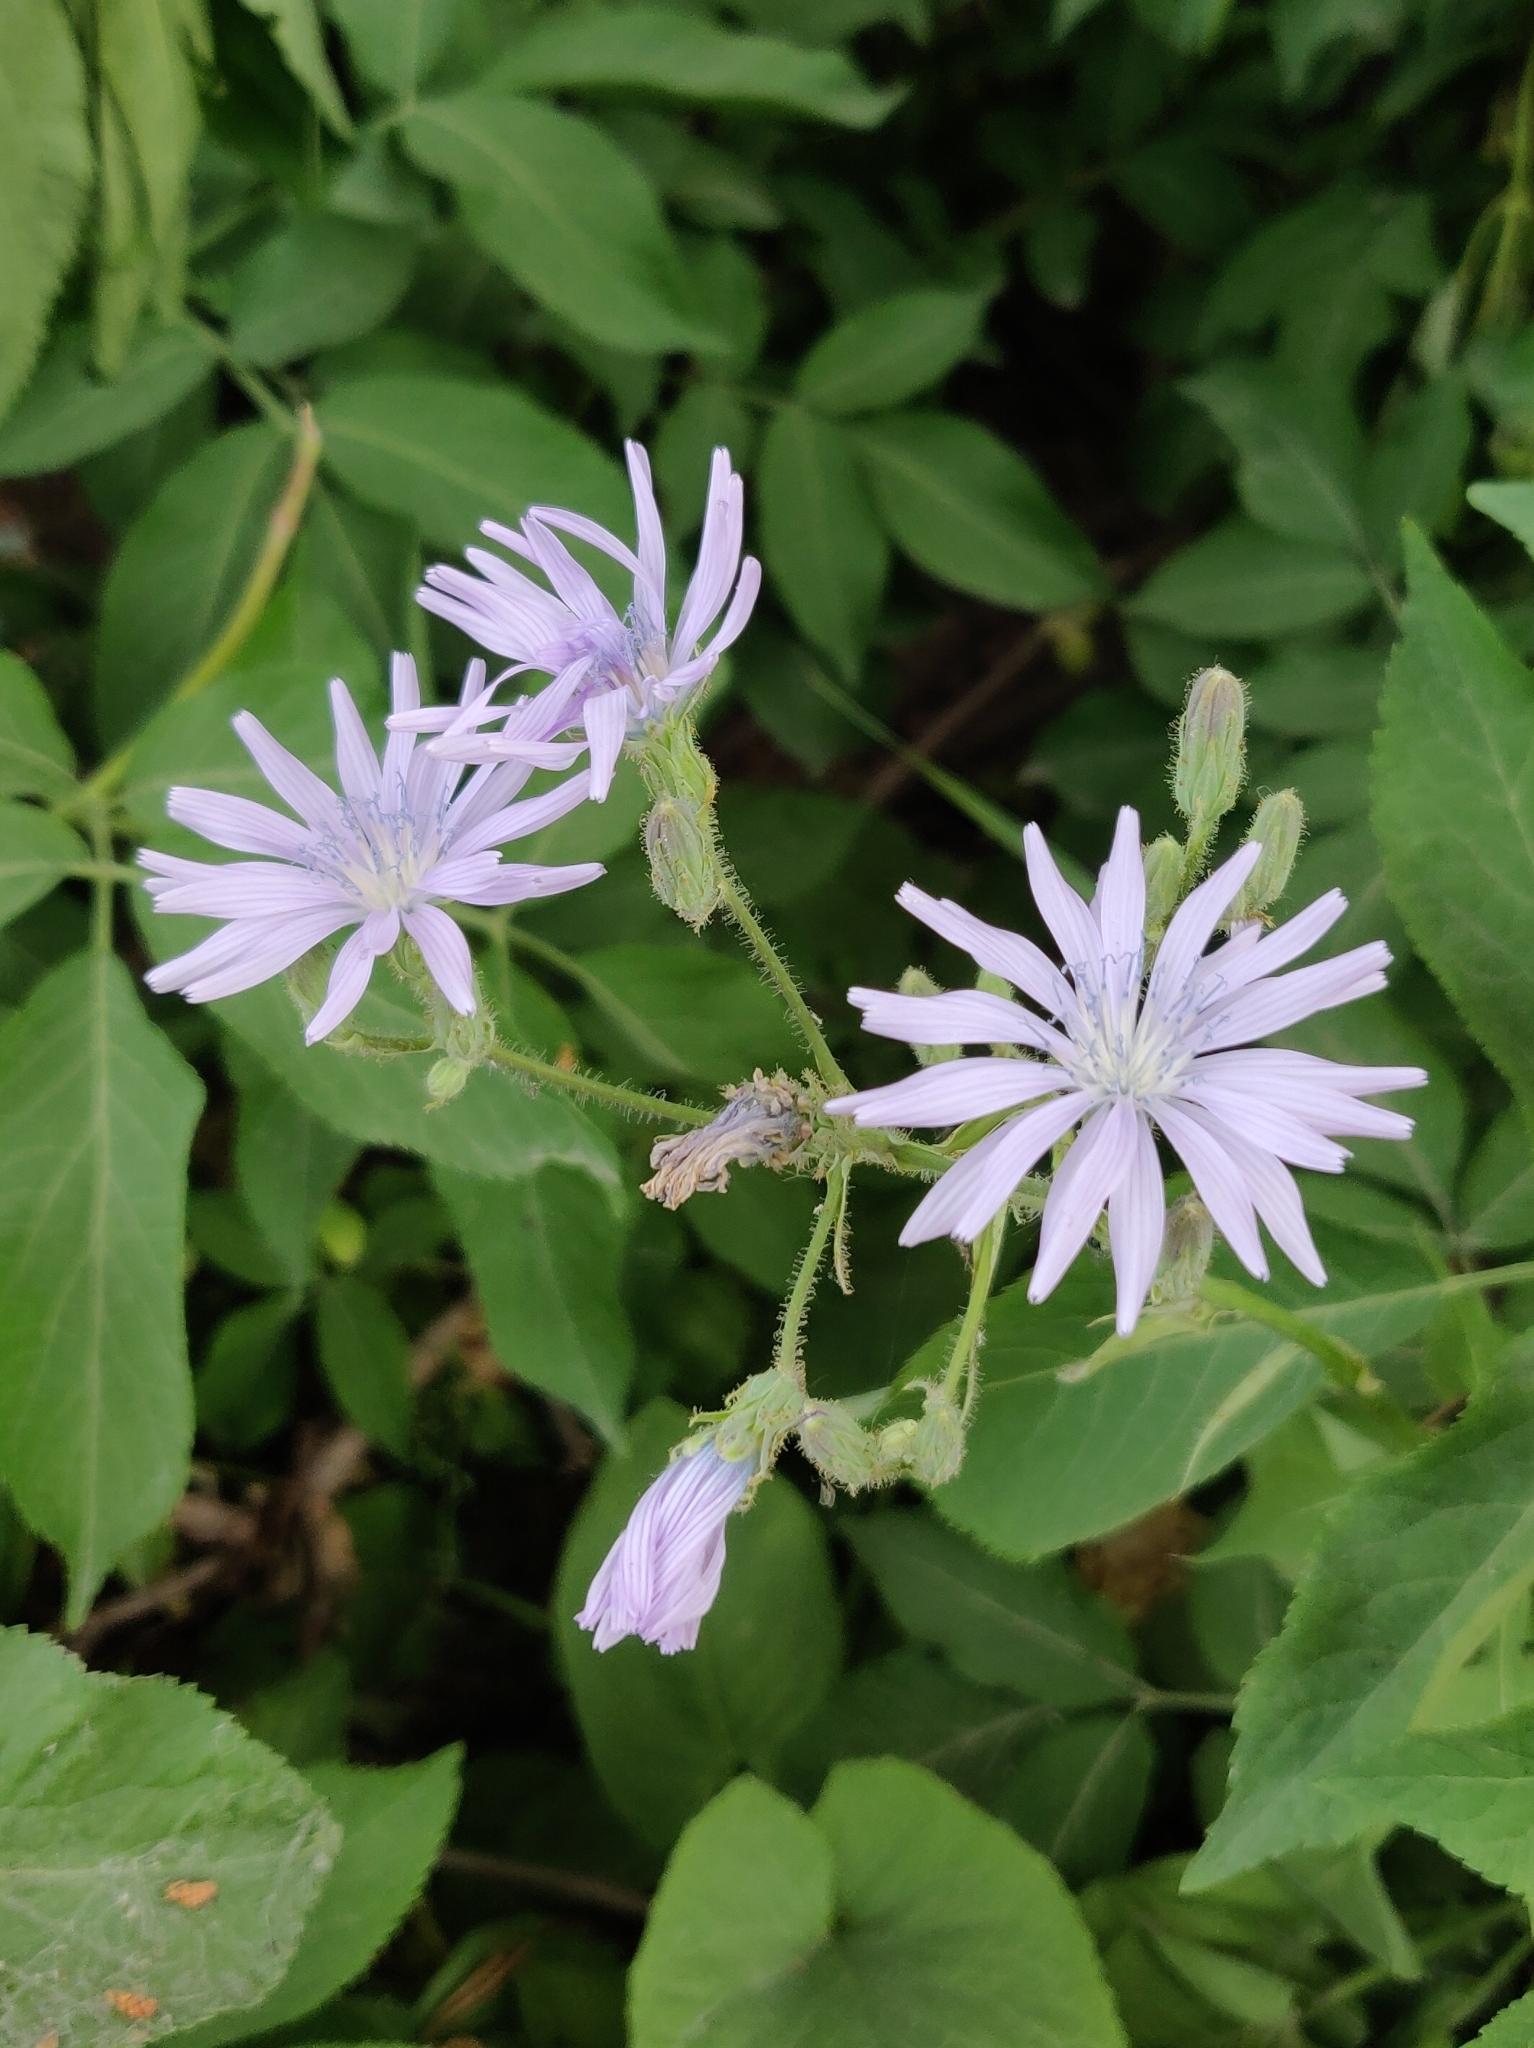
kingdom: Plantae
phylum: Tracheophyta
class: Magnoliopsida
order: Asterales
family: Asteraceae
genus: Lactuca
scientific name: Lactuca macrophylla
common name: Common blue-sow-thistle
